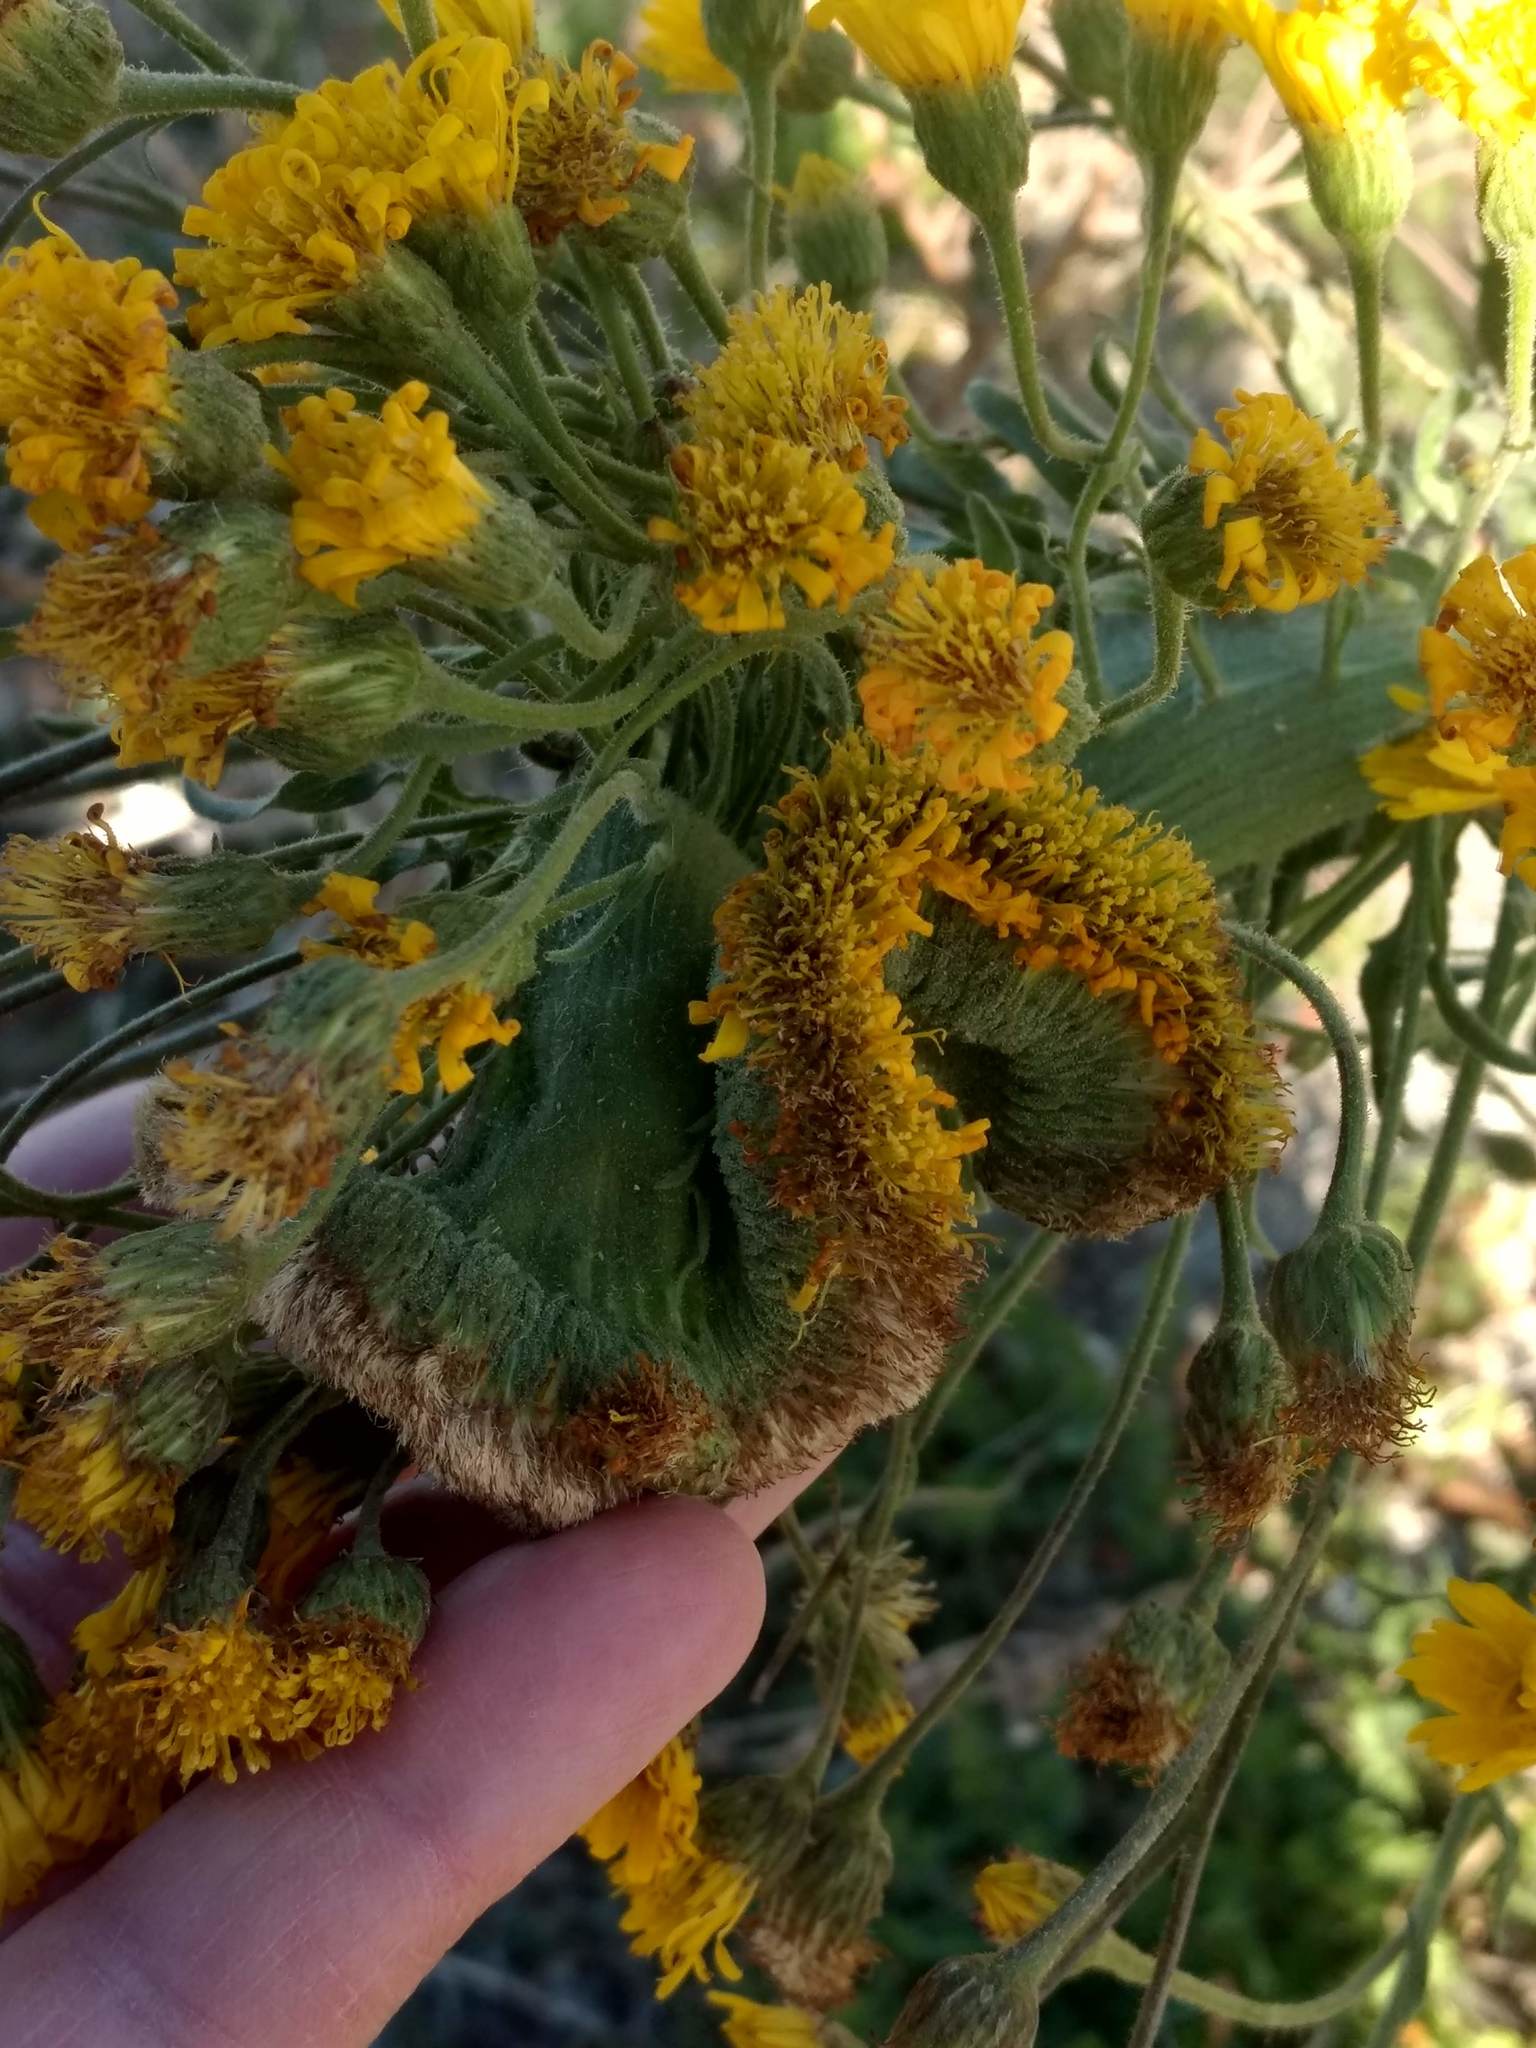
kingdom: Plantae
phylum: Tracheophyta
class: Magnoliopsida
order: Asterales
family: Asteraceae
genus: Heterotheca
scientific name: Heterotheca grandiflora
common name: Telegraphweed
